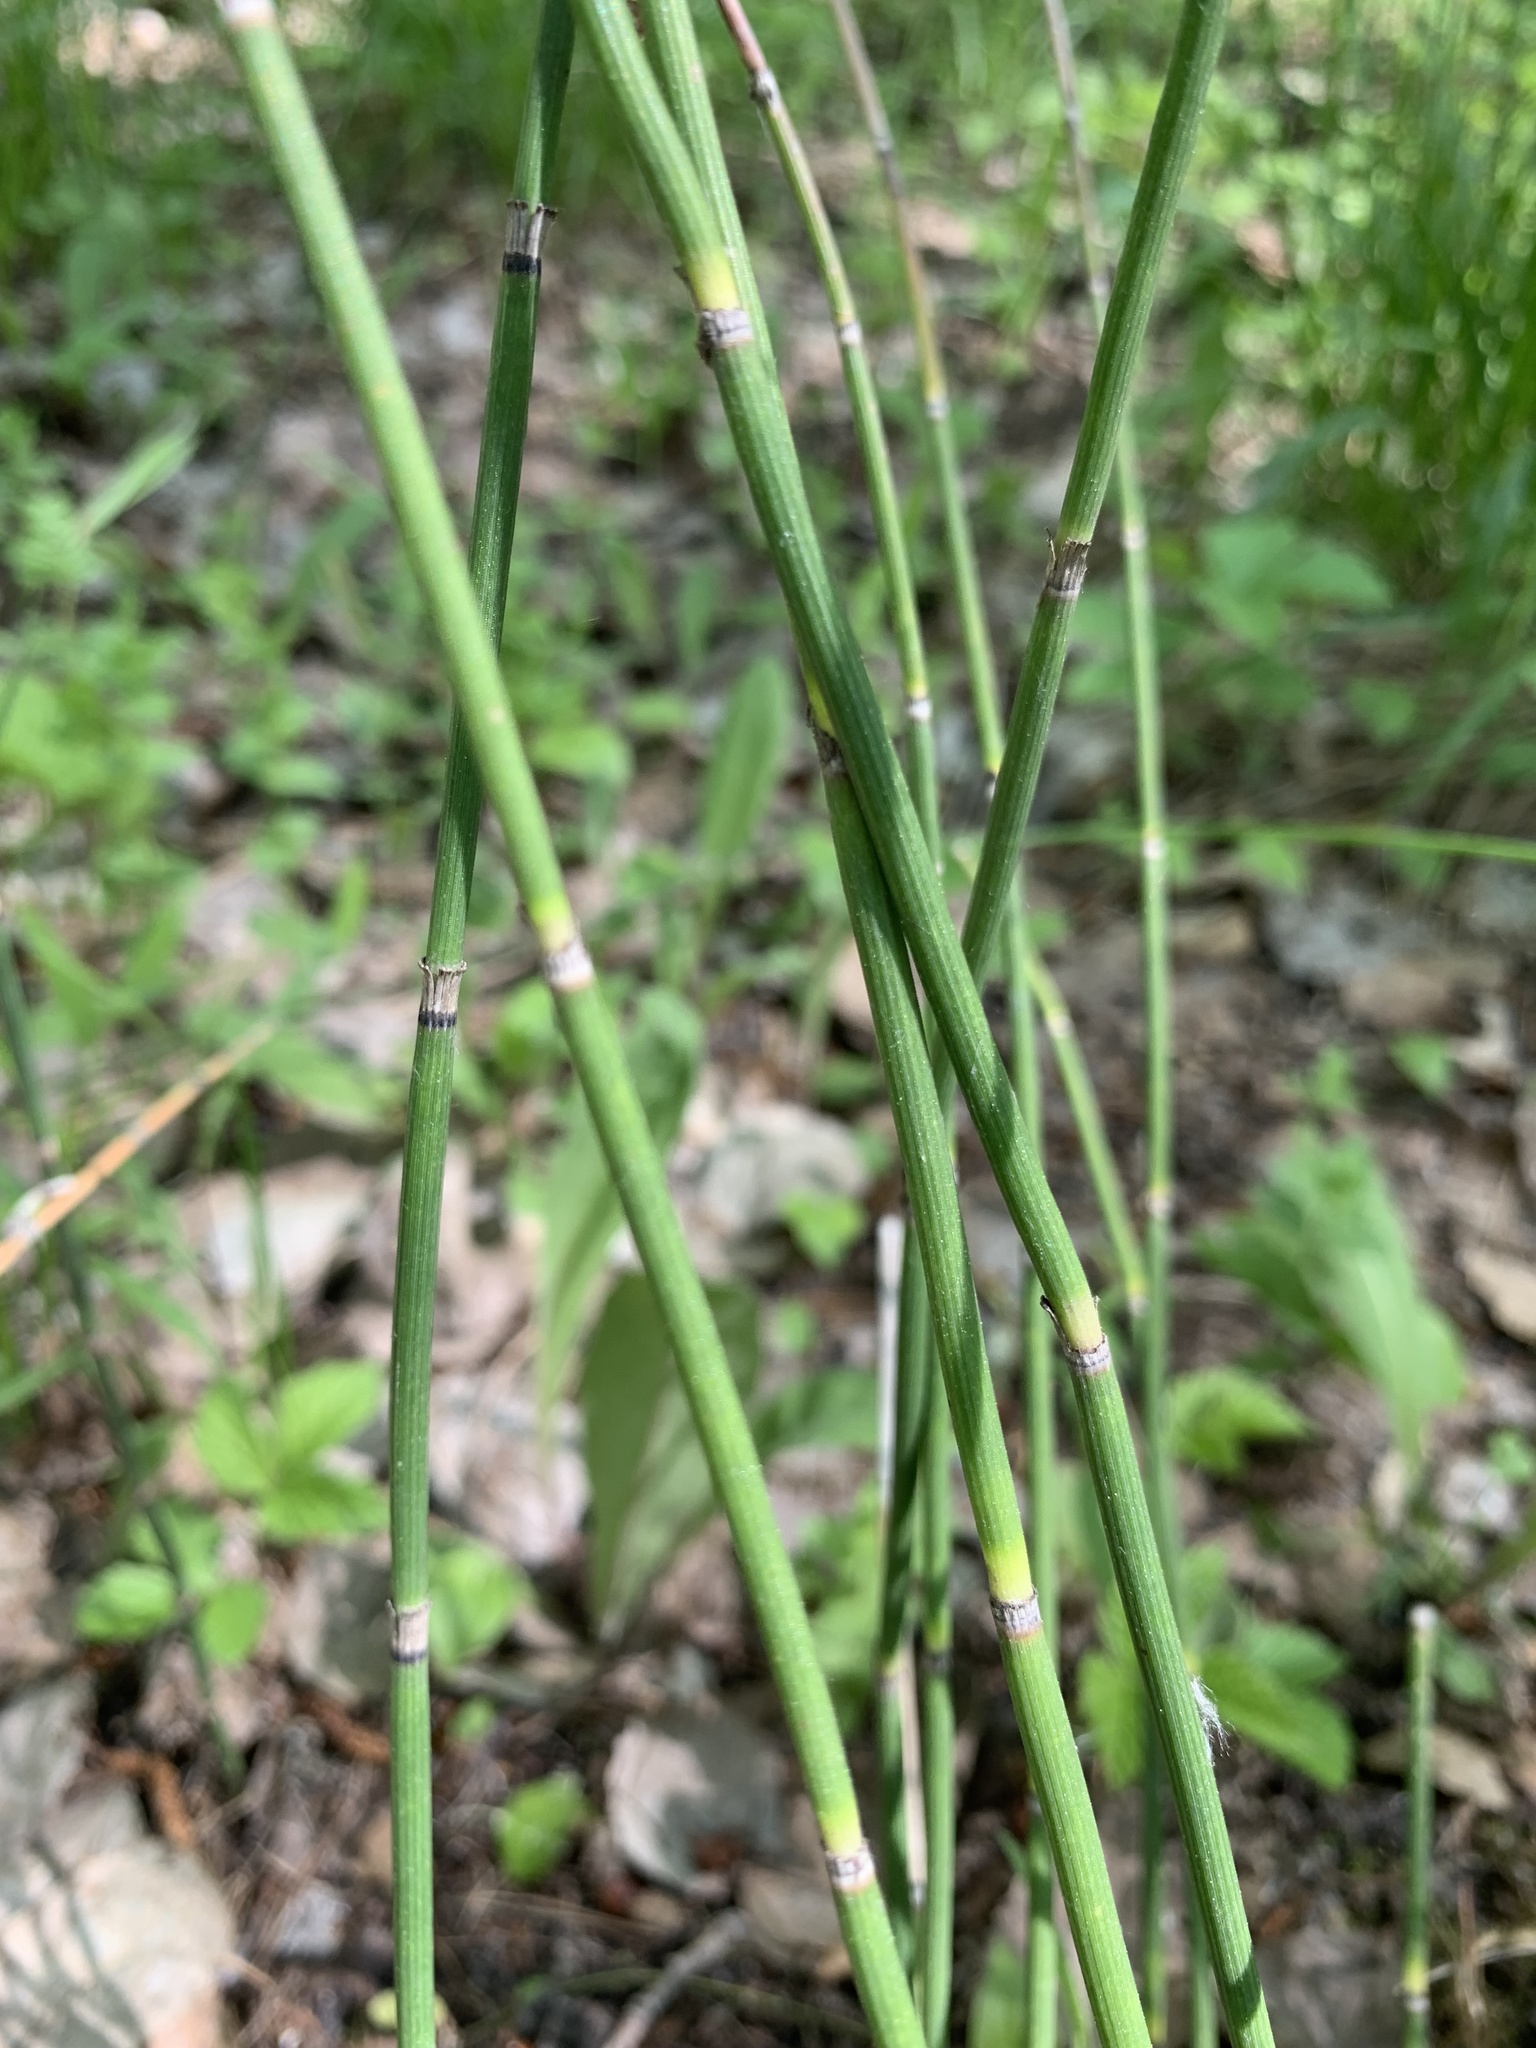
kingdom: Plantae
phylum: Tracheophyta
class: Polypodiopsida
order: Equisetales
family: Equisetaceae
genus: Equisetum
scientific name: Equisetum hyemale
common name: Rough horsetail
